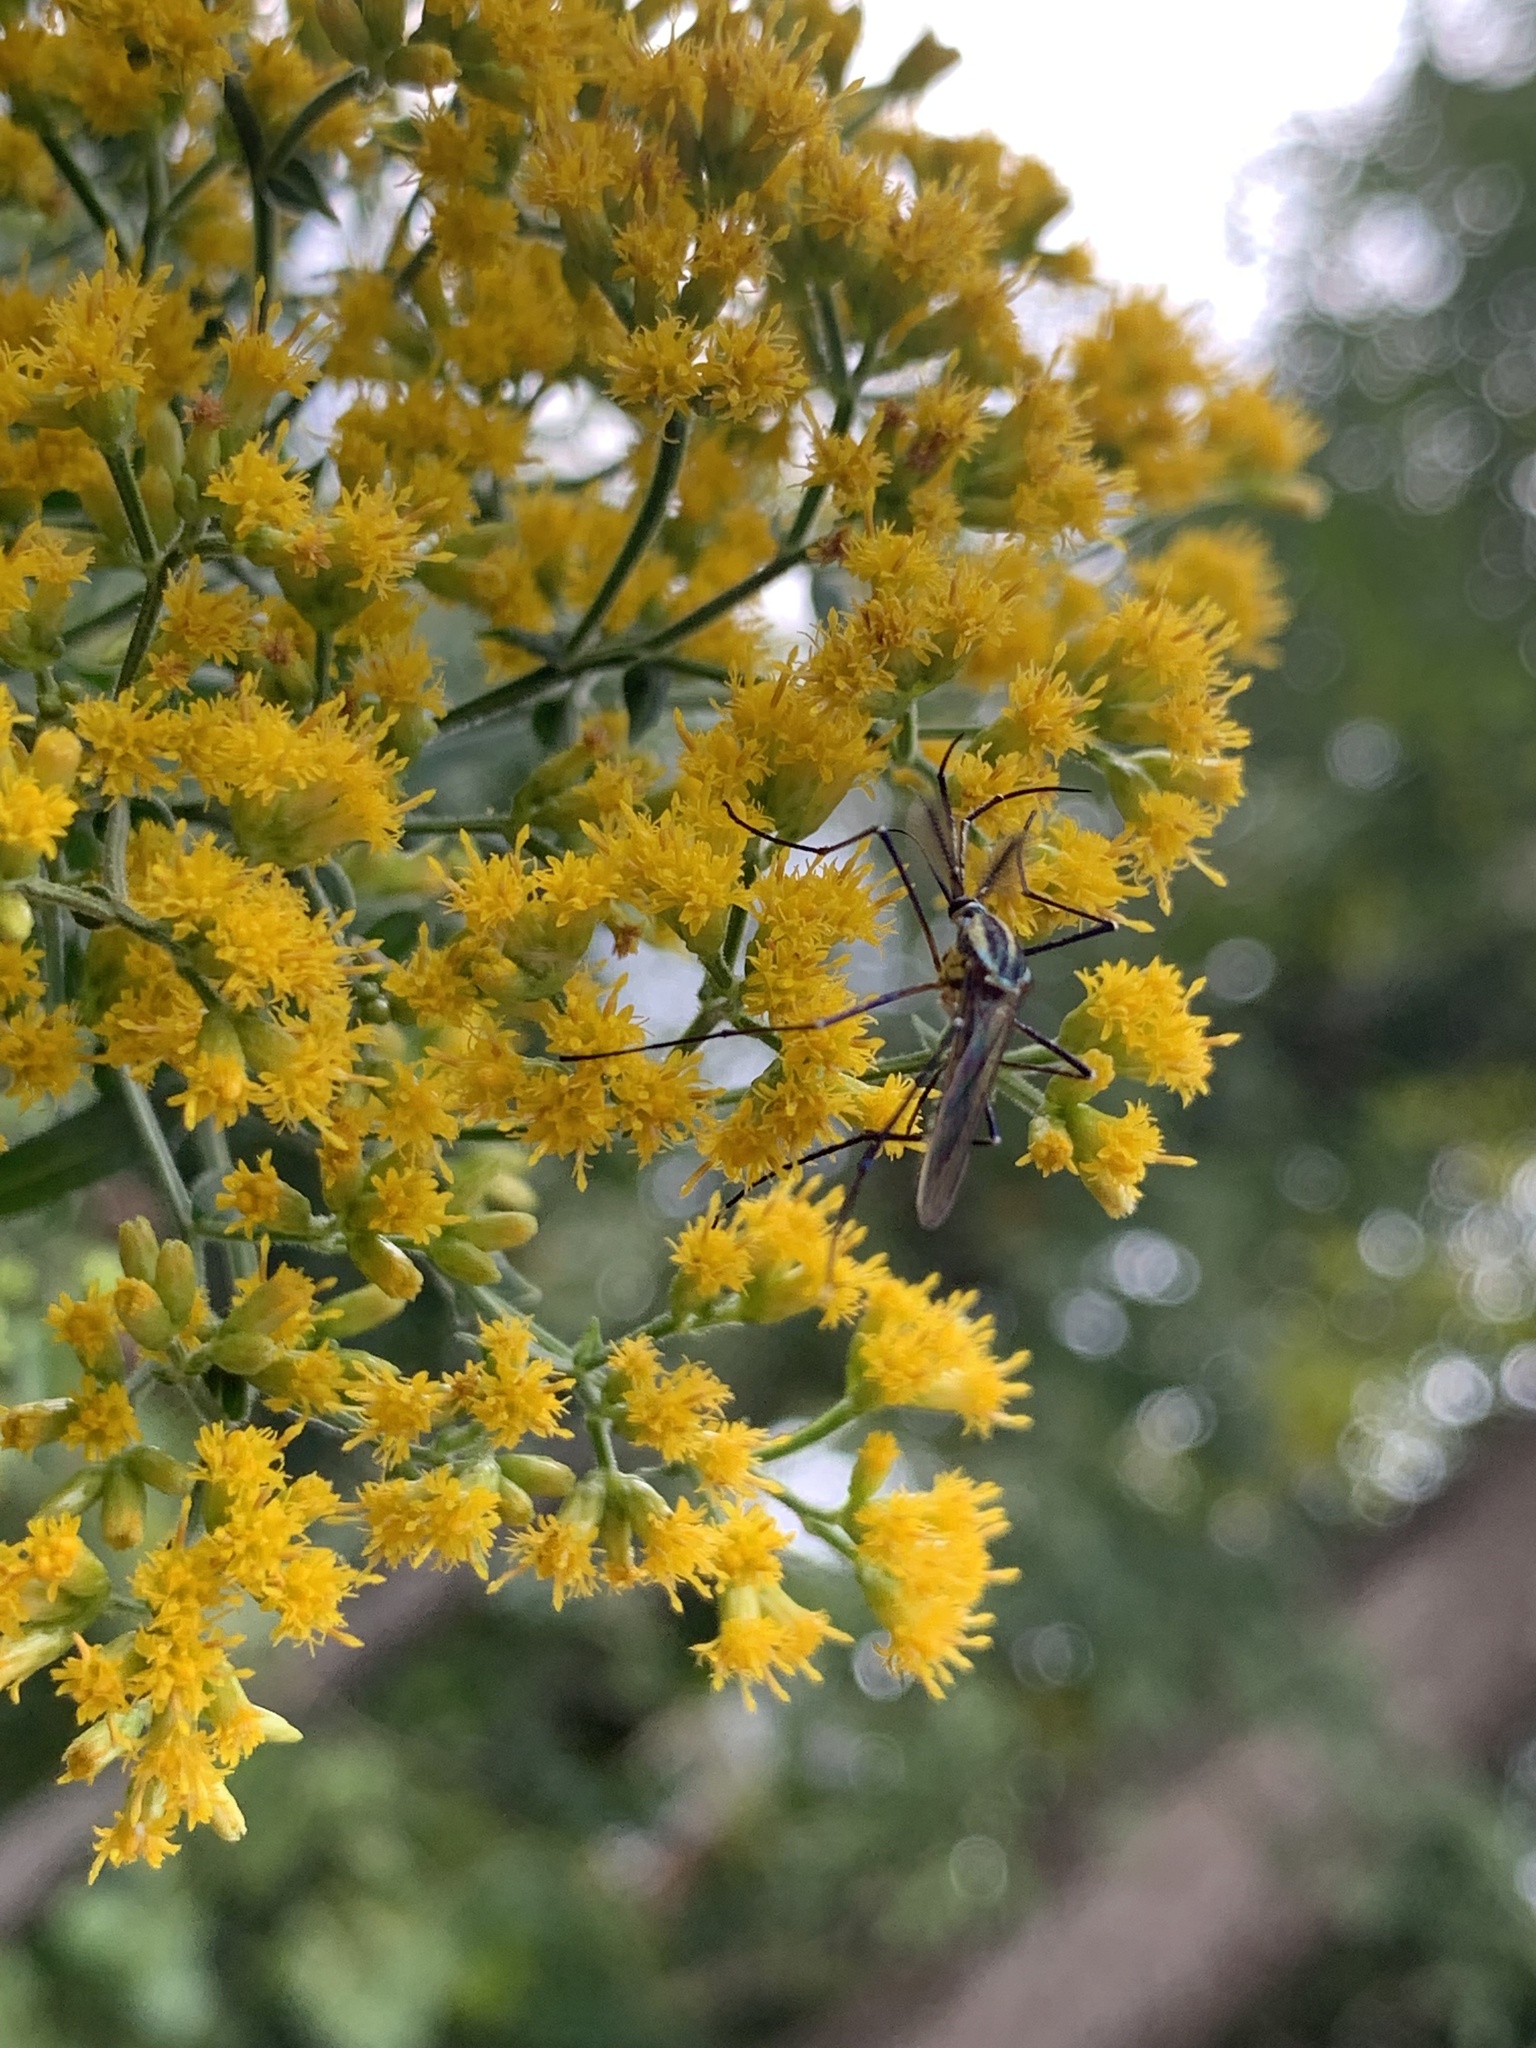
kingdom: Animalia
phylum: Arthropoda
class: Insecta
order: Diptera
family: Culicidae
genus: Toxorhynchites
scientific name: Toxorhynchites rutilus
